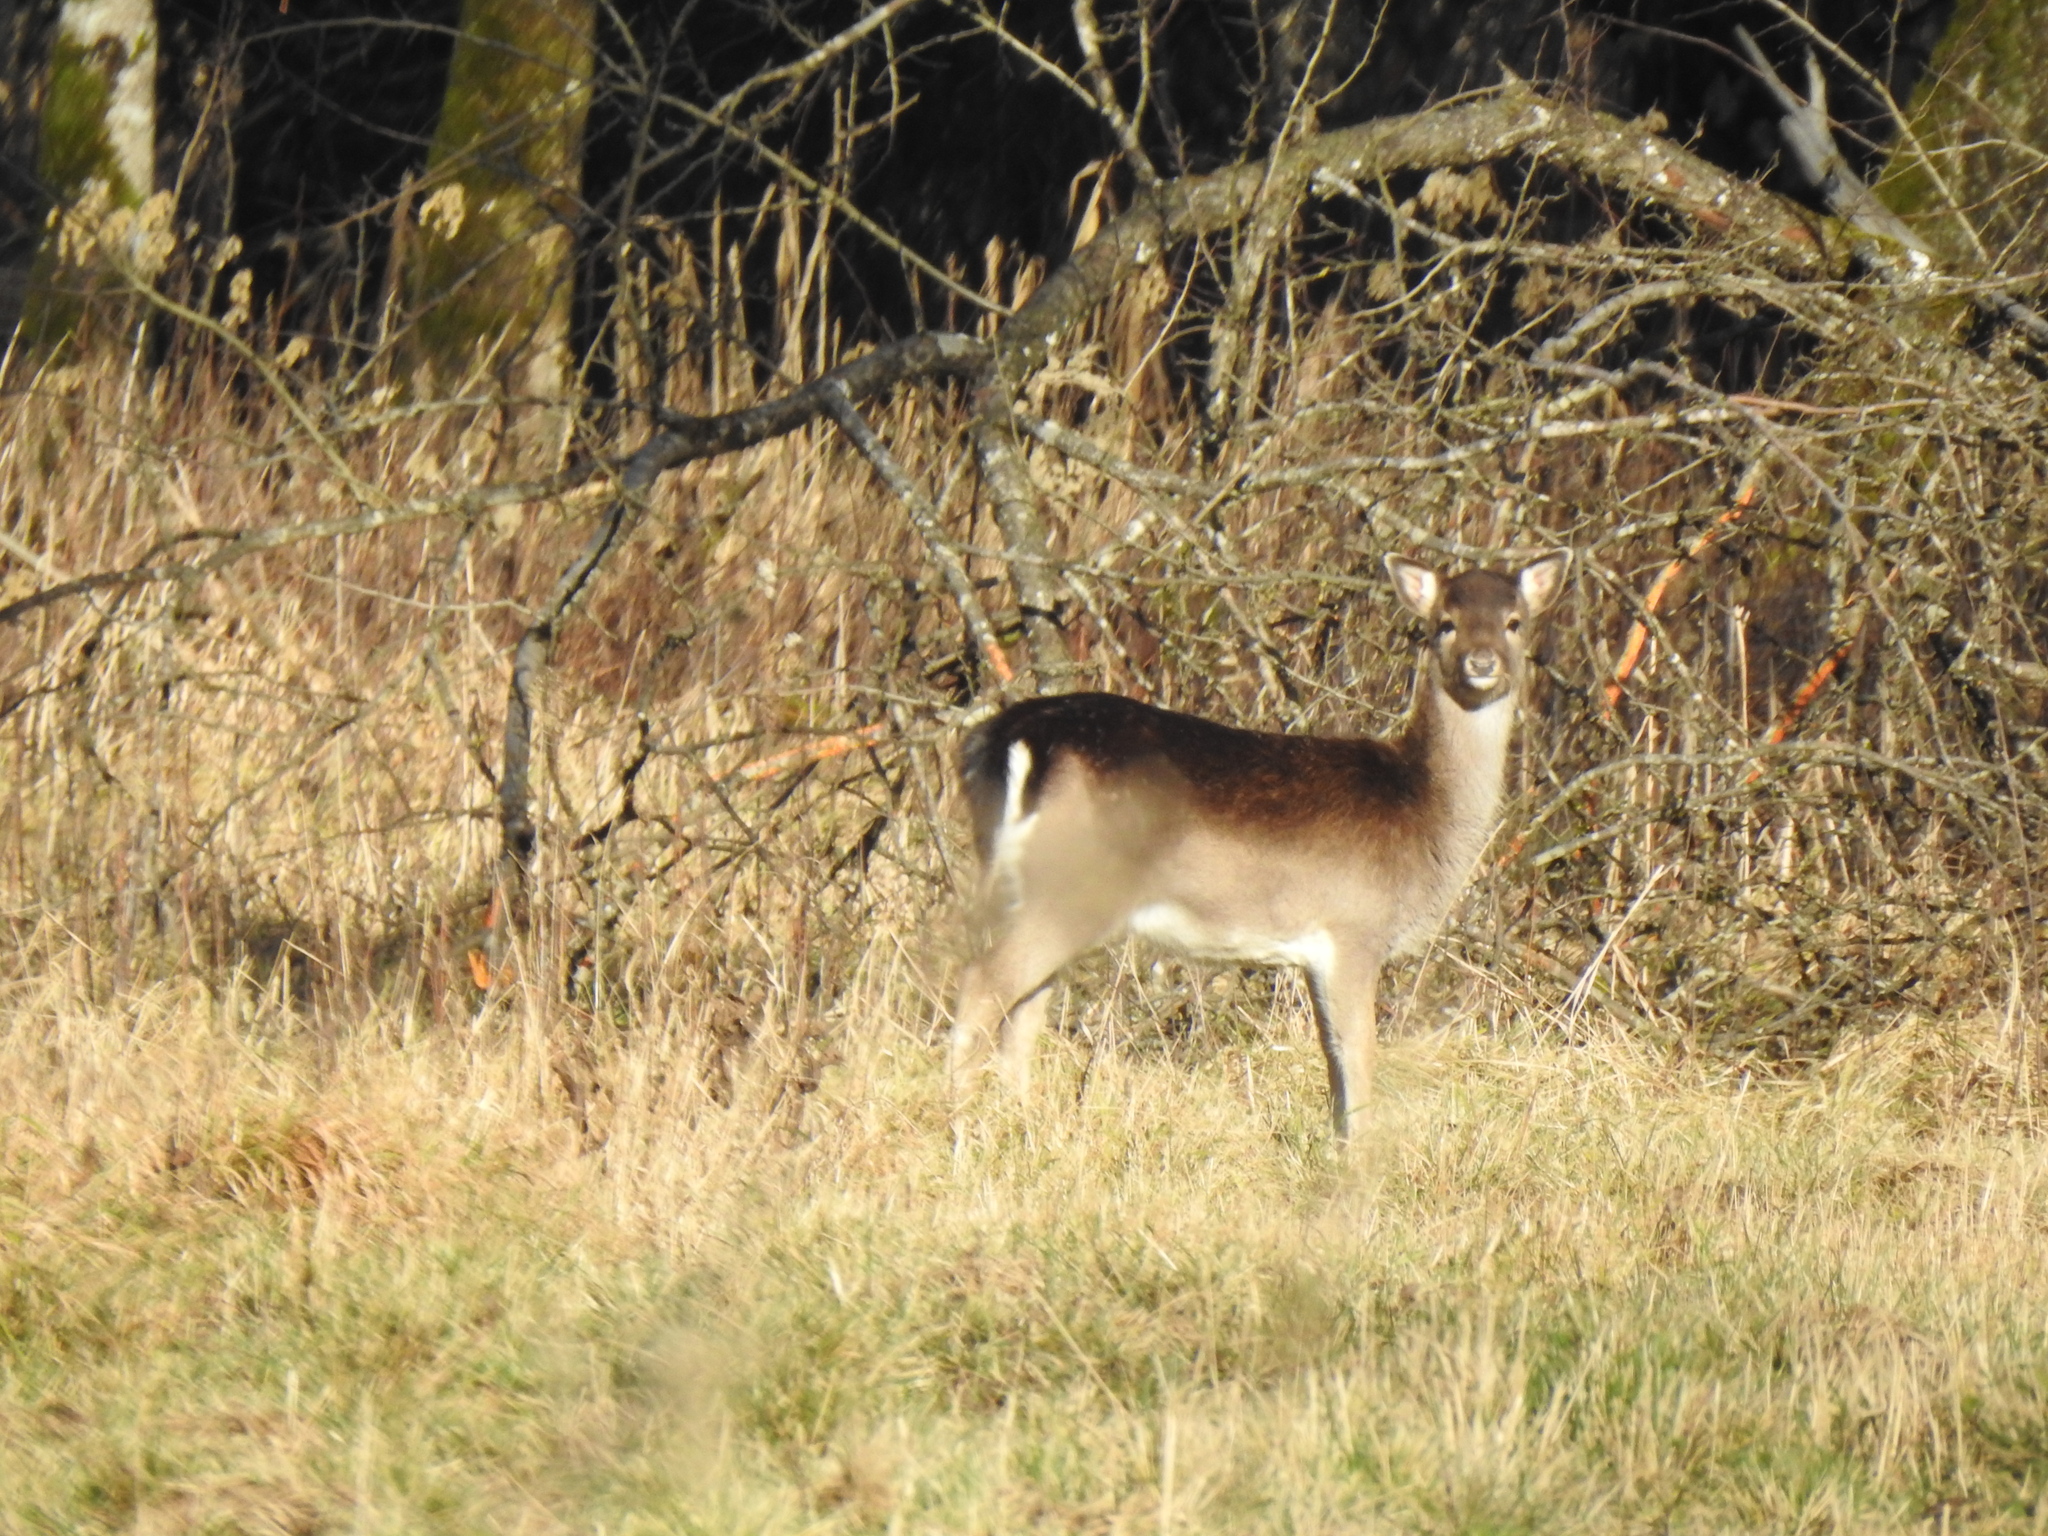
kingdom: Animalia
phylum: Chordata
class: Mammalia
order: Artiodactyla
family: Cervidae
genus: Dama
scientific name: Dama dama
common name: Fallow deer
